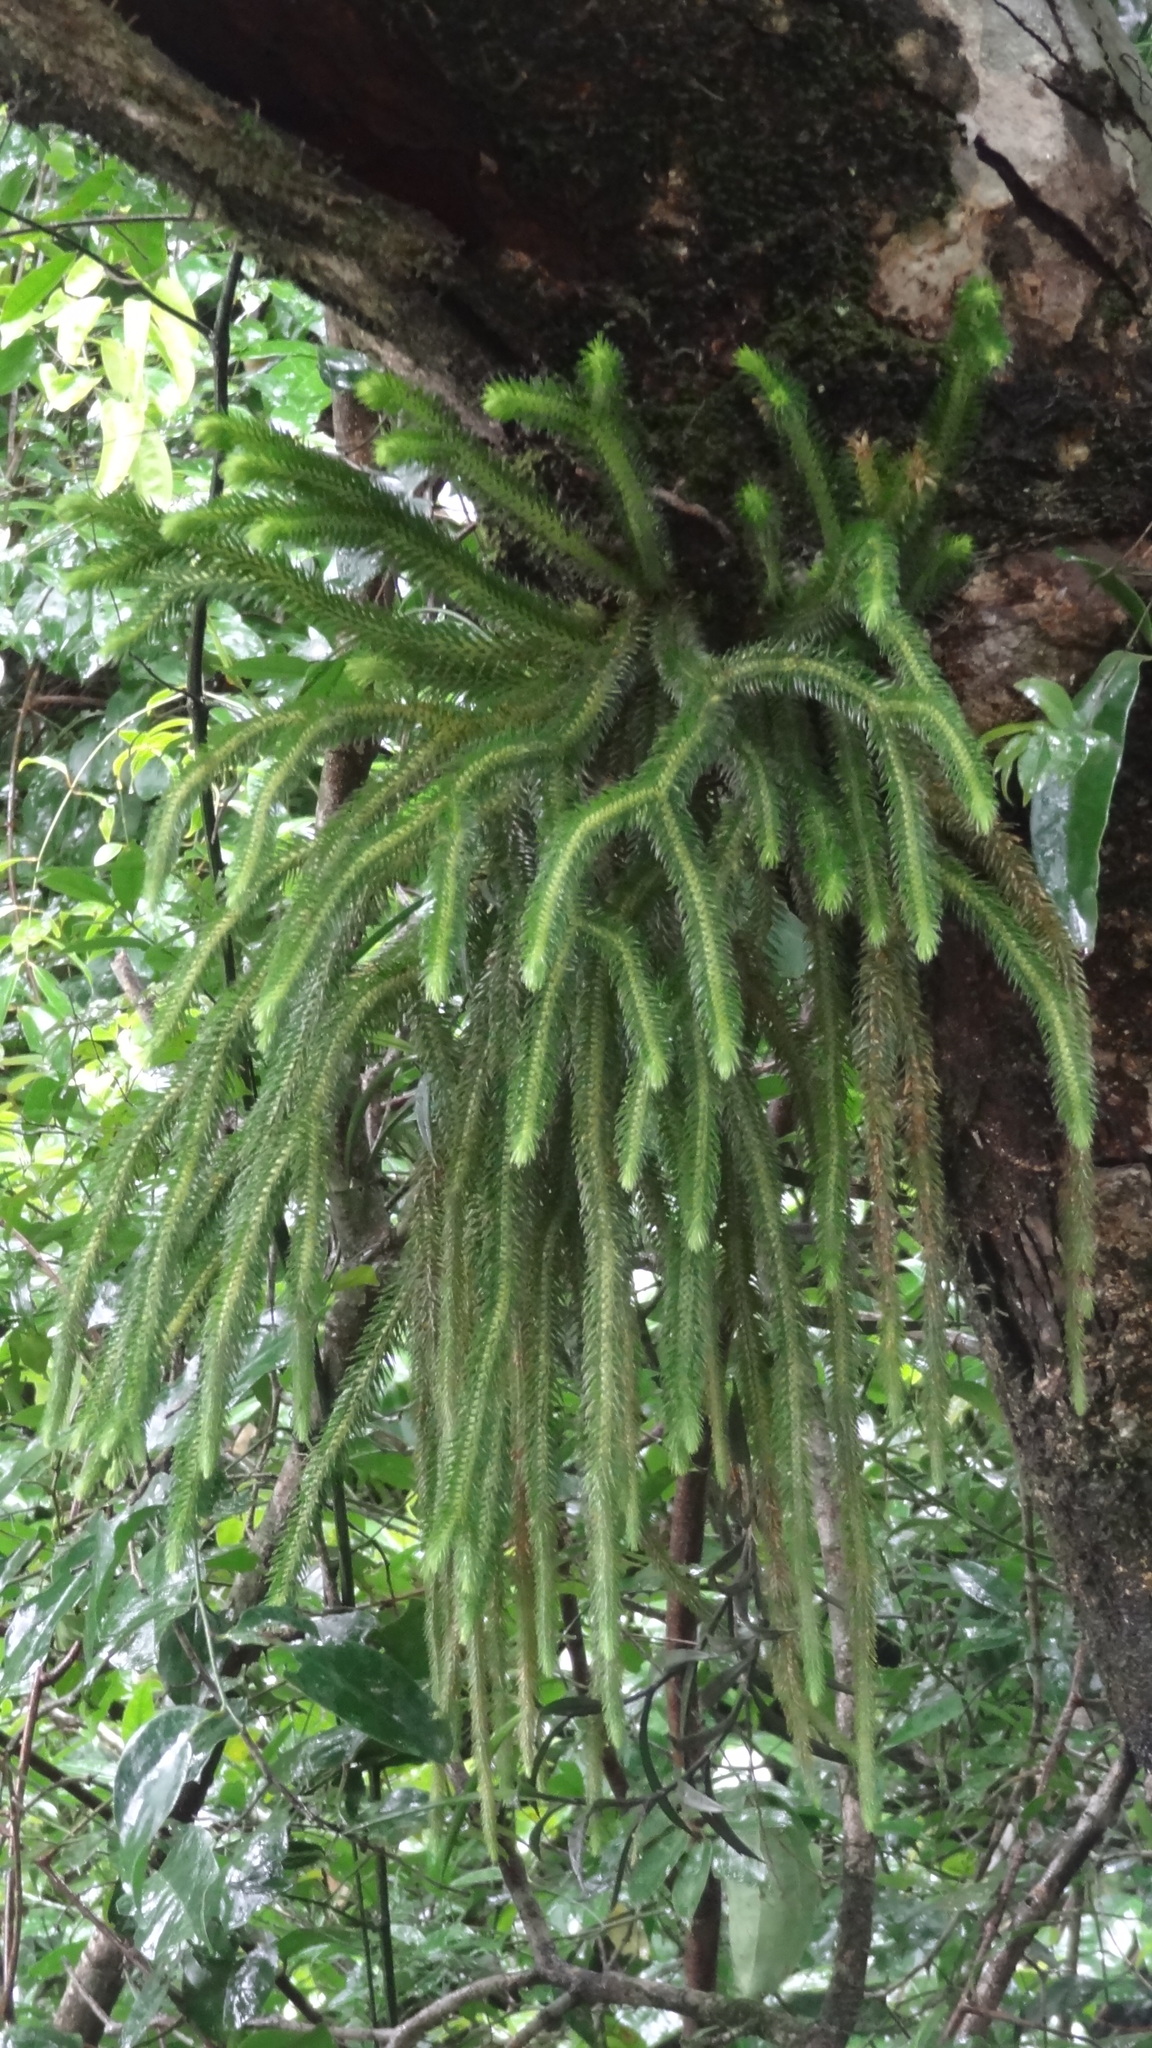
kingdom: Plantae
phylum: Tracheophyta
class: Lycopodiopsida
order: Lycopodiales
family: Lycopodiaceae
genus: Phlegmariurus
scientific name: Phlegmariurus squarrosus
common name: Rock tassel-fern
